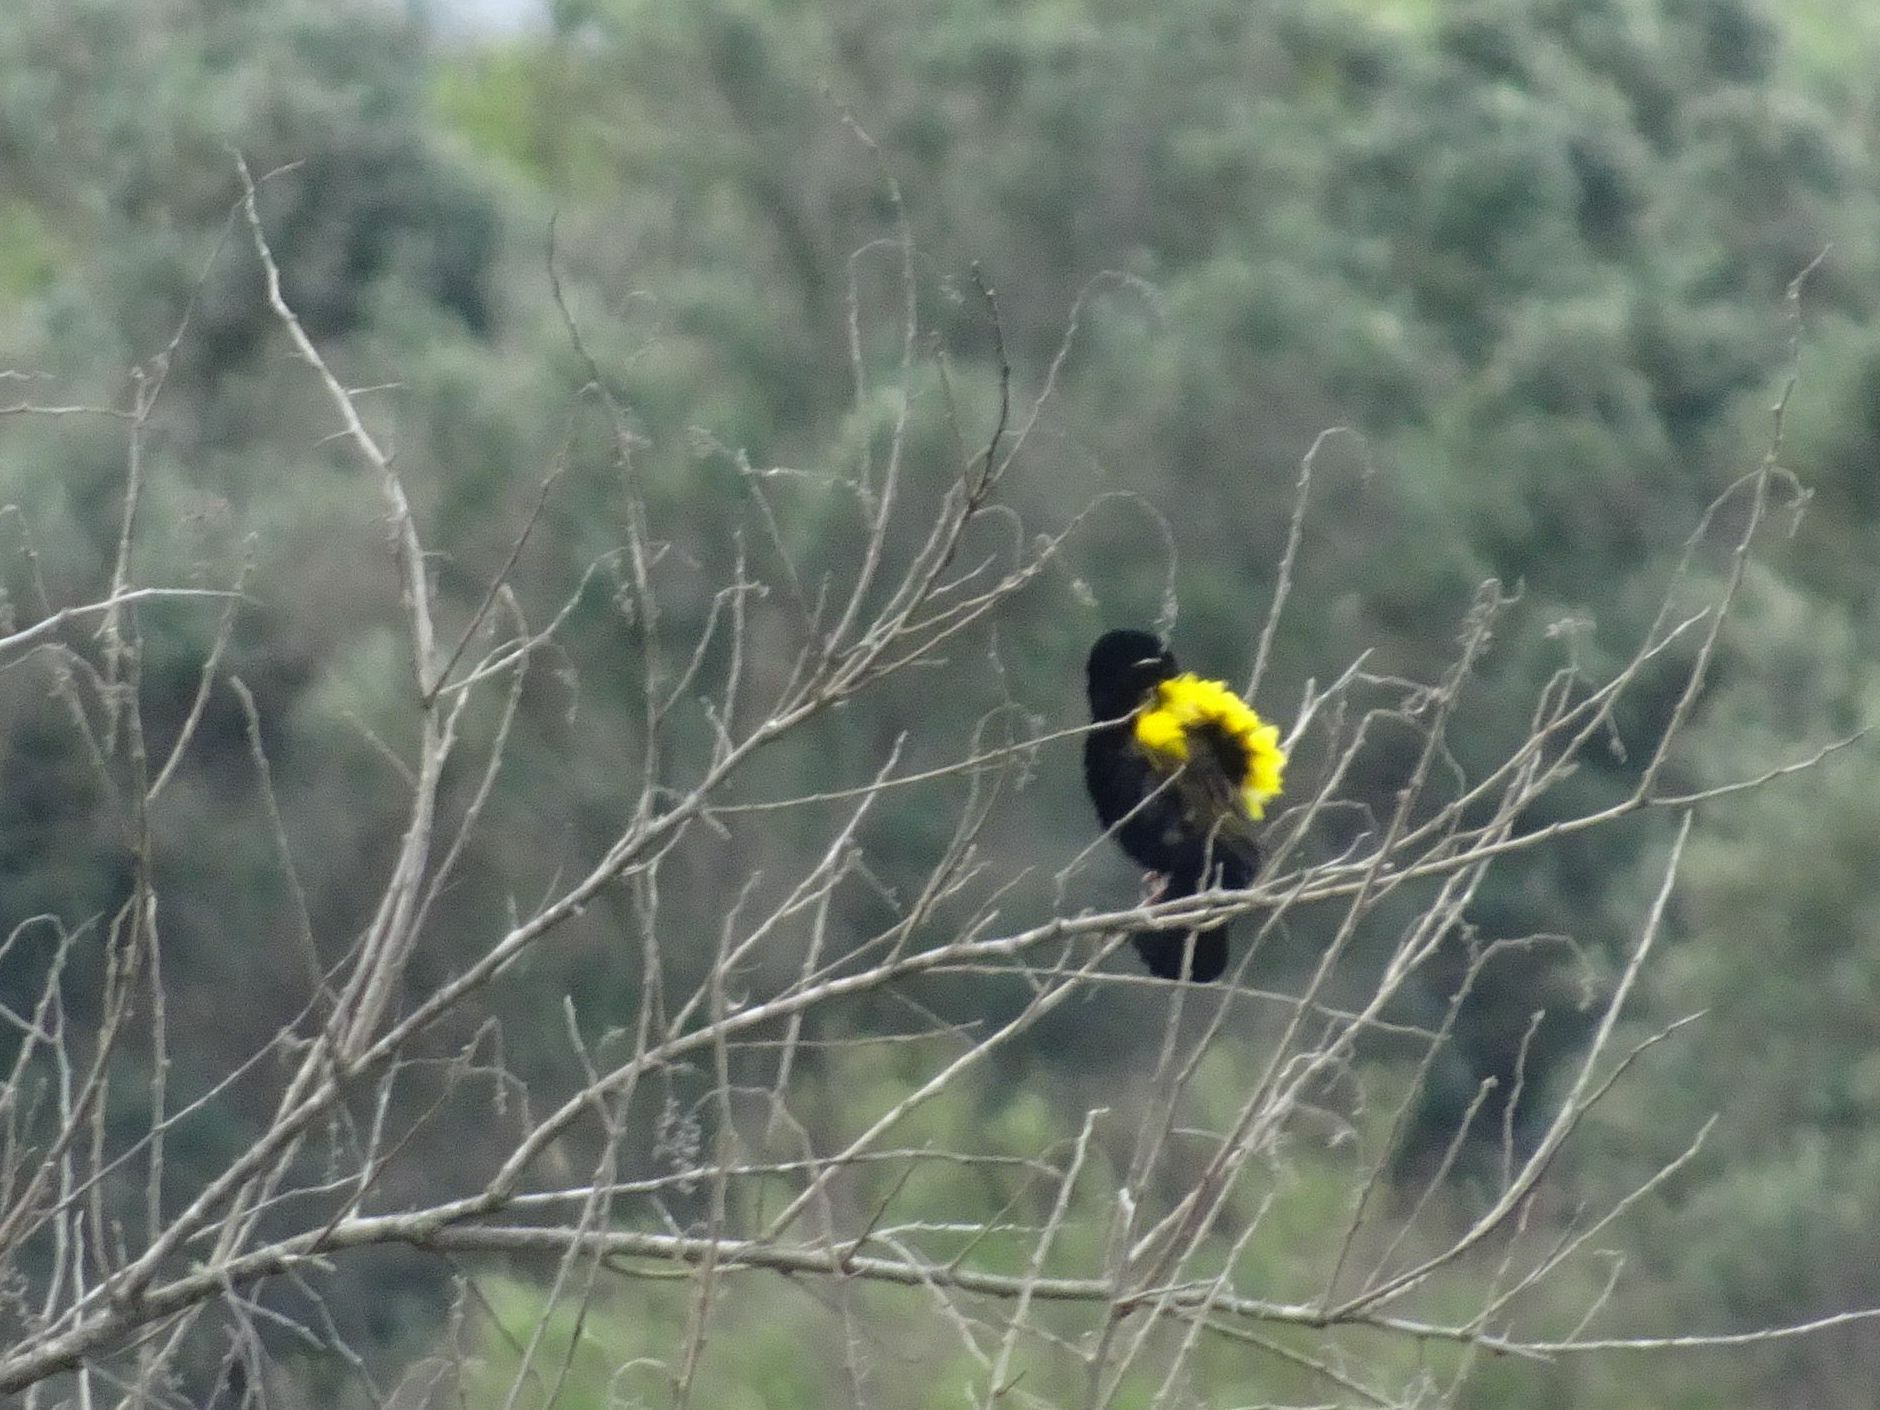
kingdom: Animalia
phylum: Chordata
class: Aves
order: Passeriformes
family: Ploceidae
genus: Euplectes
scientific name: Euplectes capensis
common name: Yellow bishop
